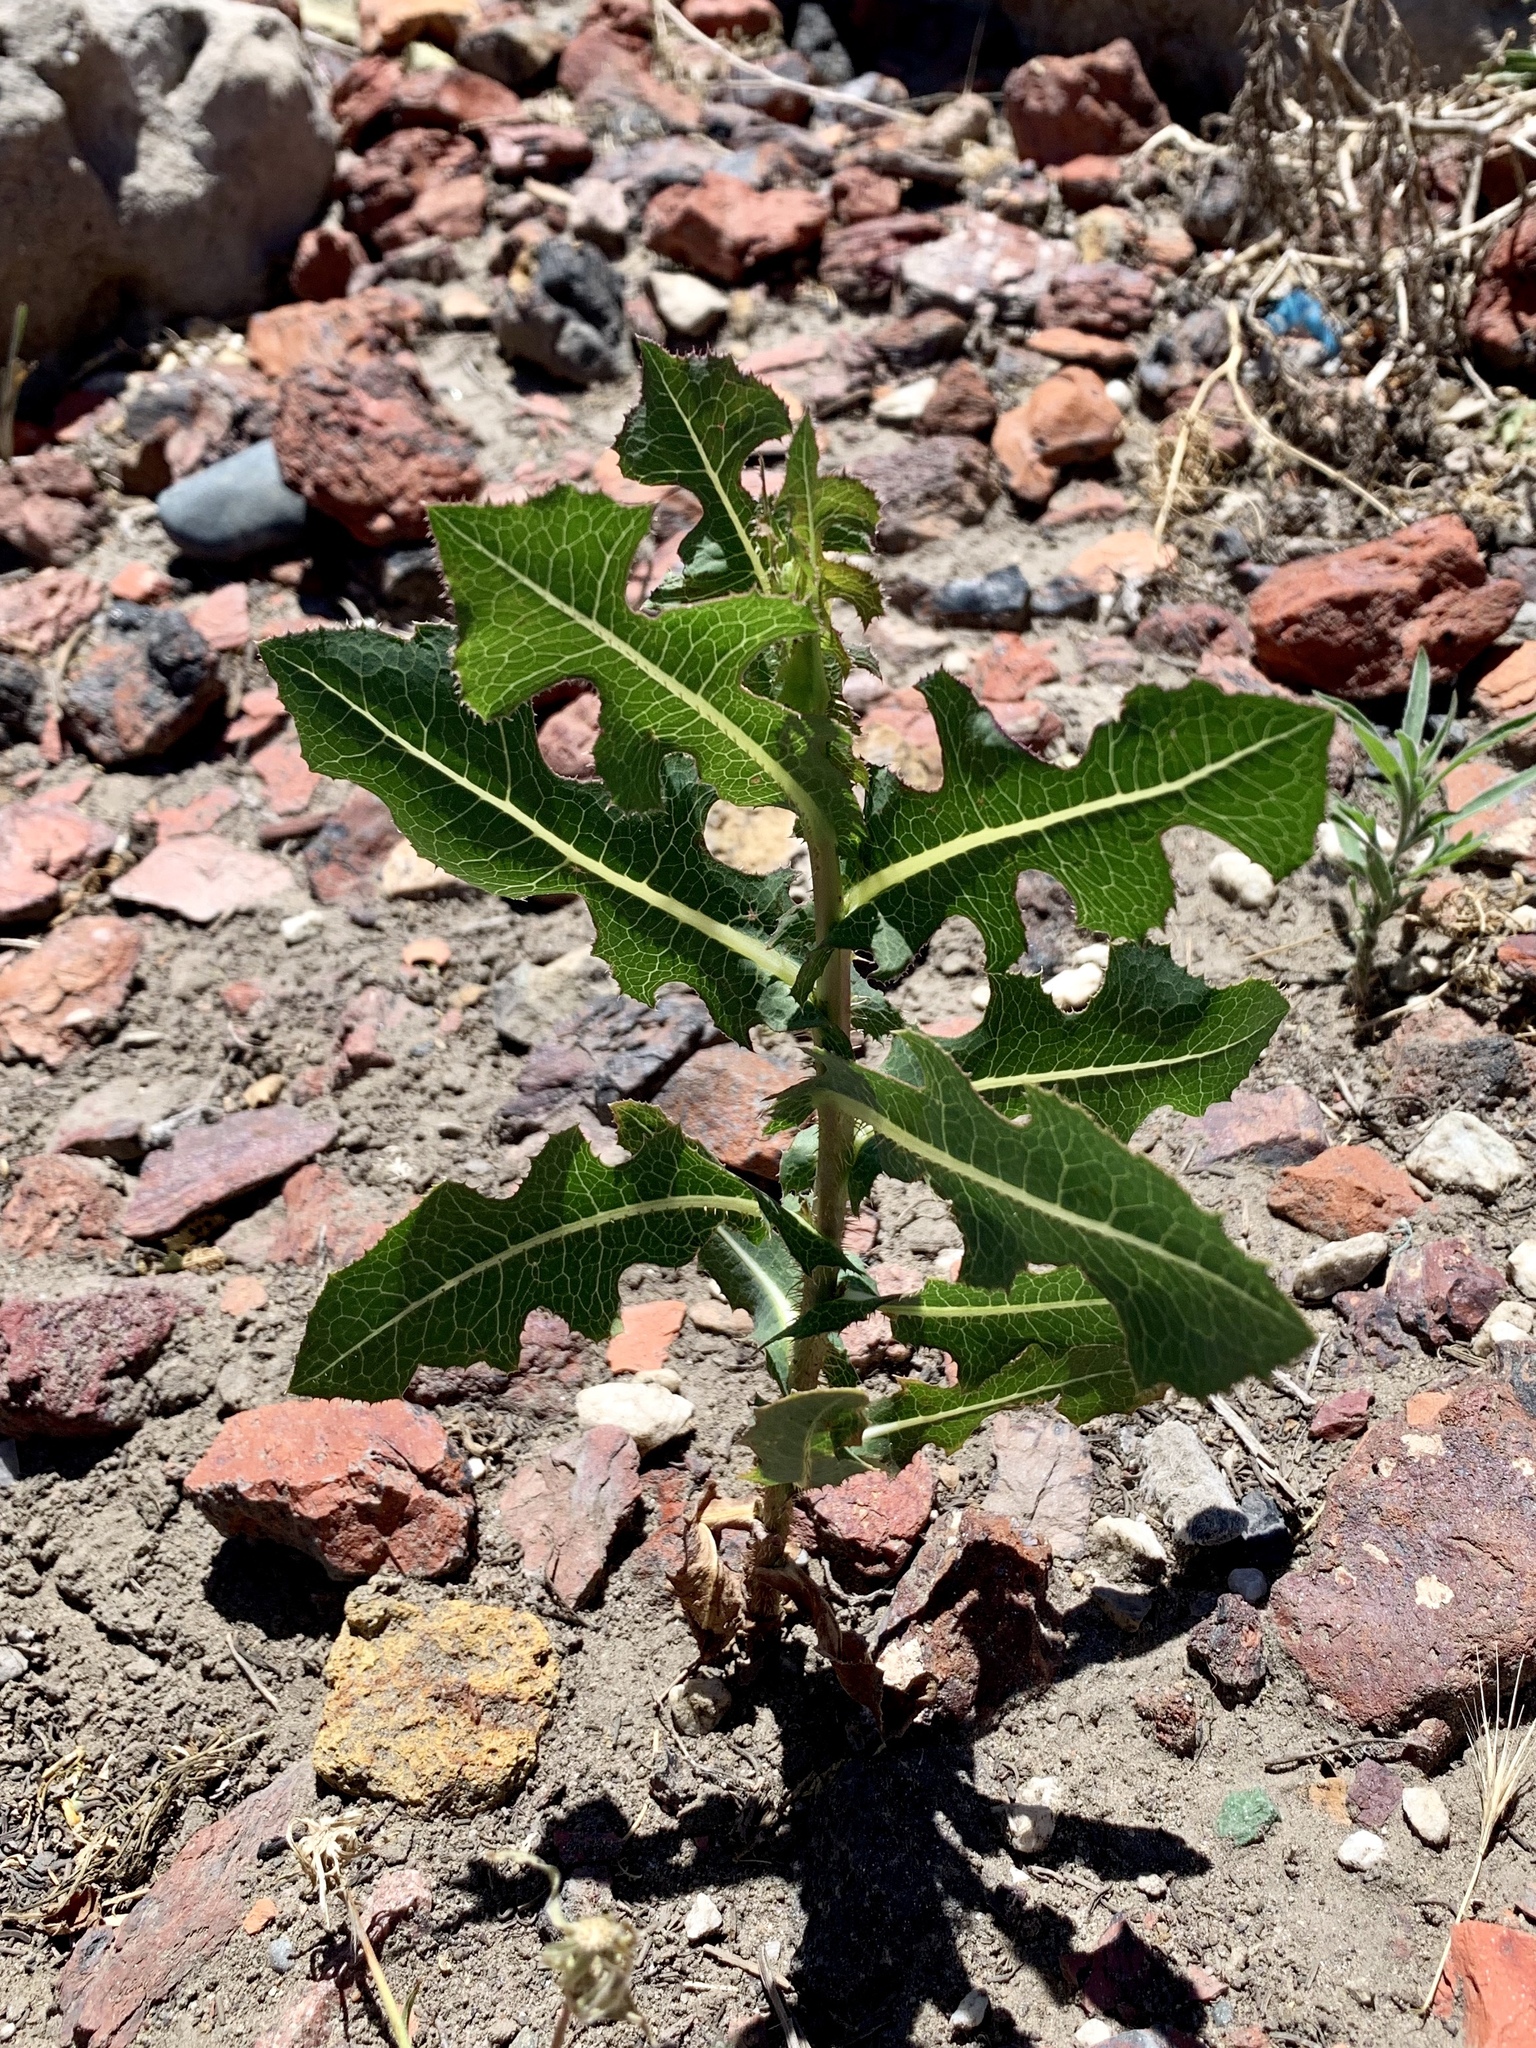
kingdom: Plantae
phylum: Tracheophyta
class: Magnoliopsida
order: Asterales
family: Asteraceae
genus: Lactuca
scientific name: Lactuca serriola
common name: Prickly lettuce
